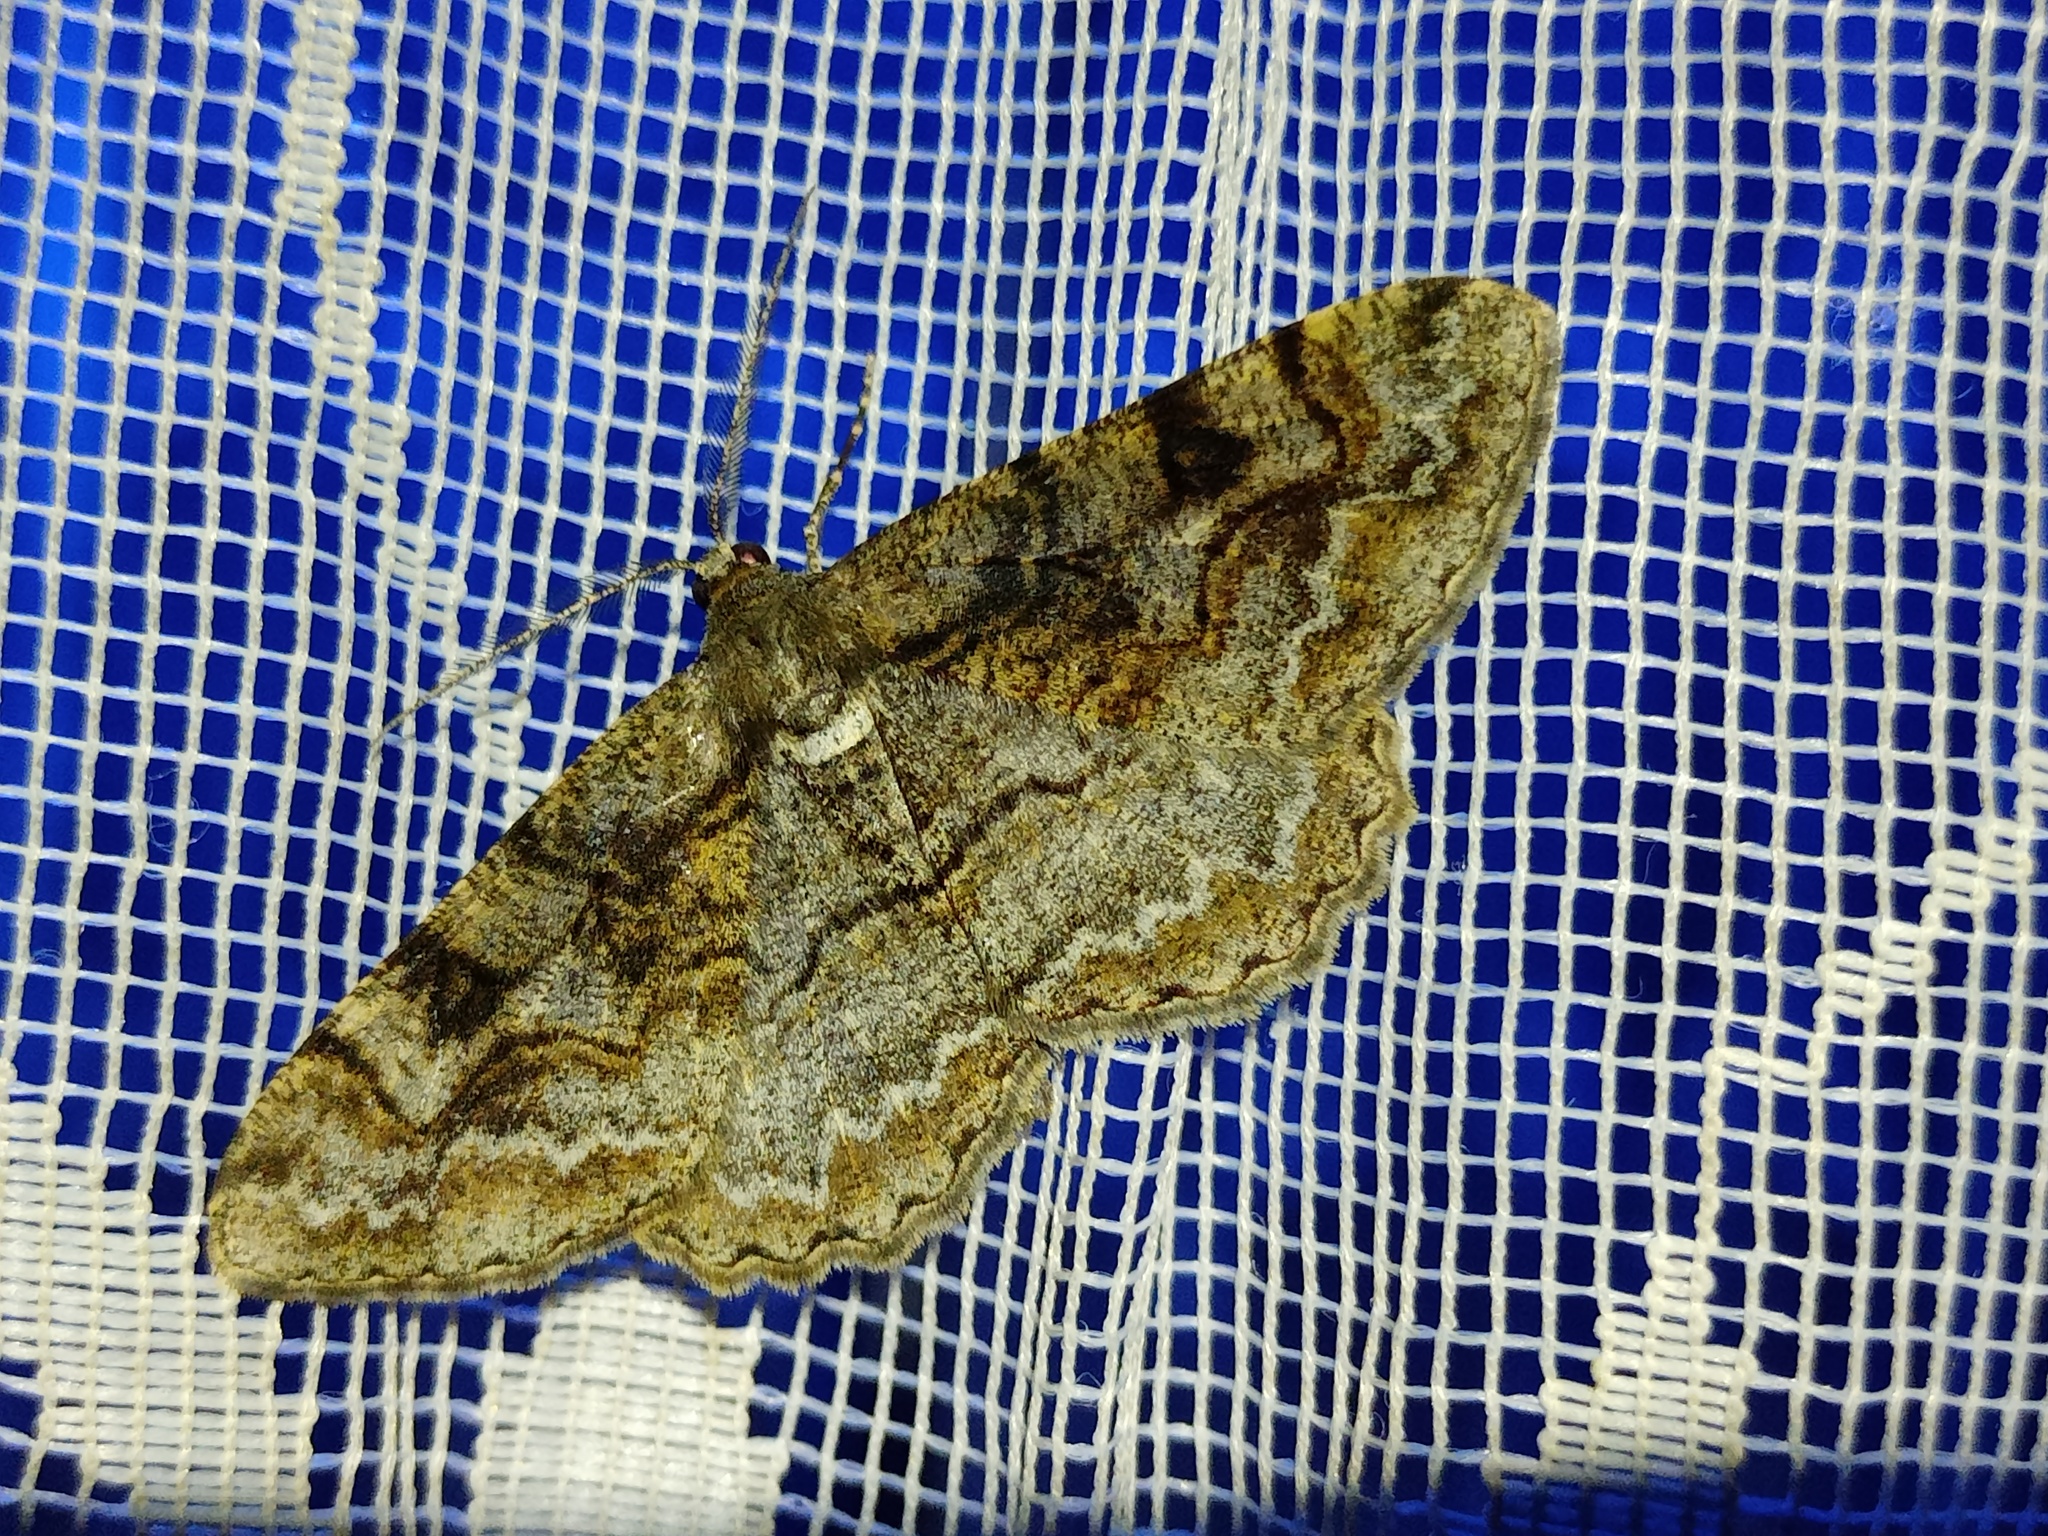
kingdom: Animalia
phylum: Arthropoda
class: Insecta
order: Lepidoptera
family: Geometridae
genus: Alcis
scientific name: Alcis repandata
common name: Mottled beauty
